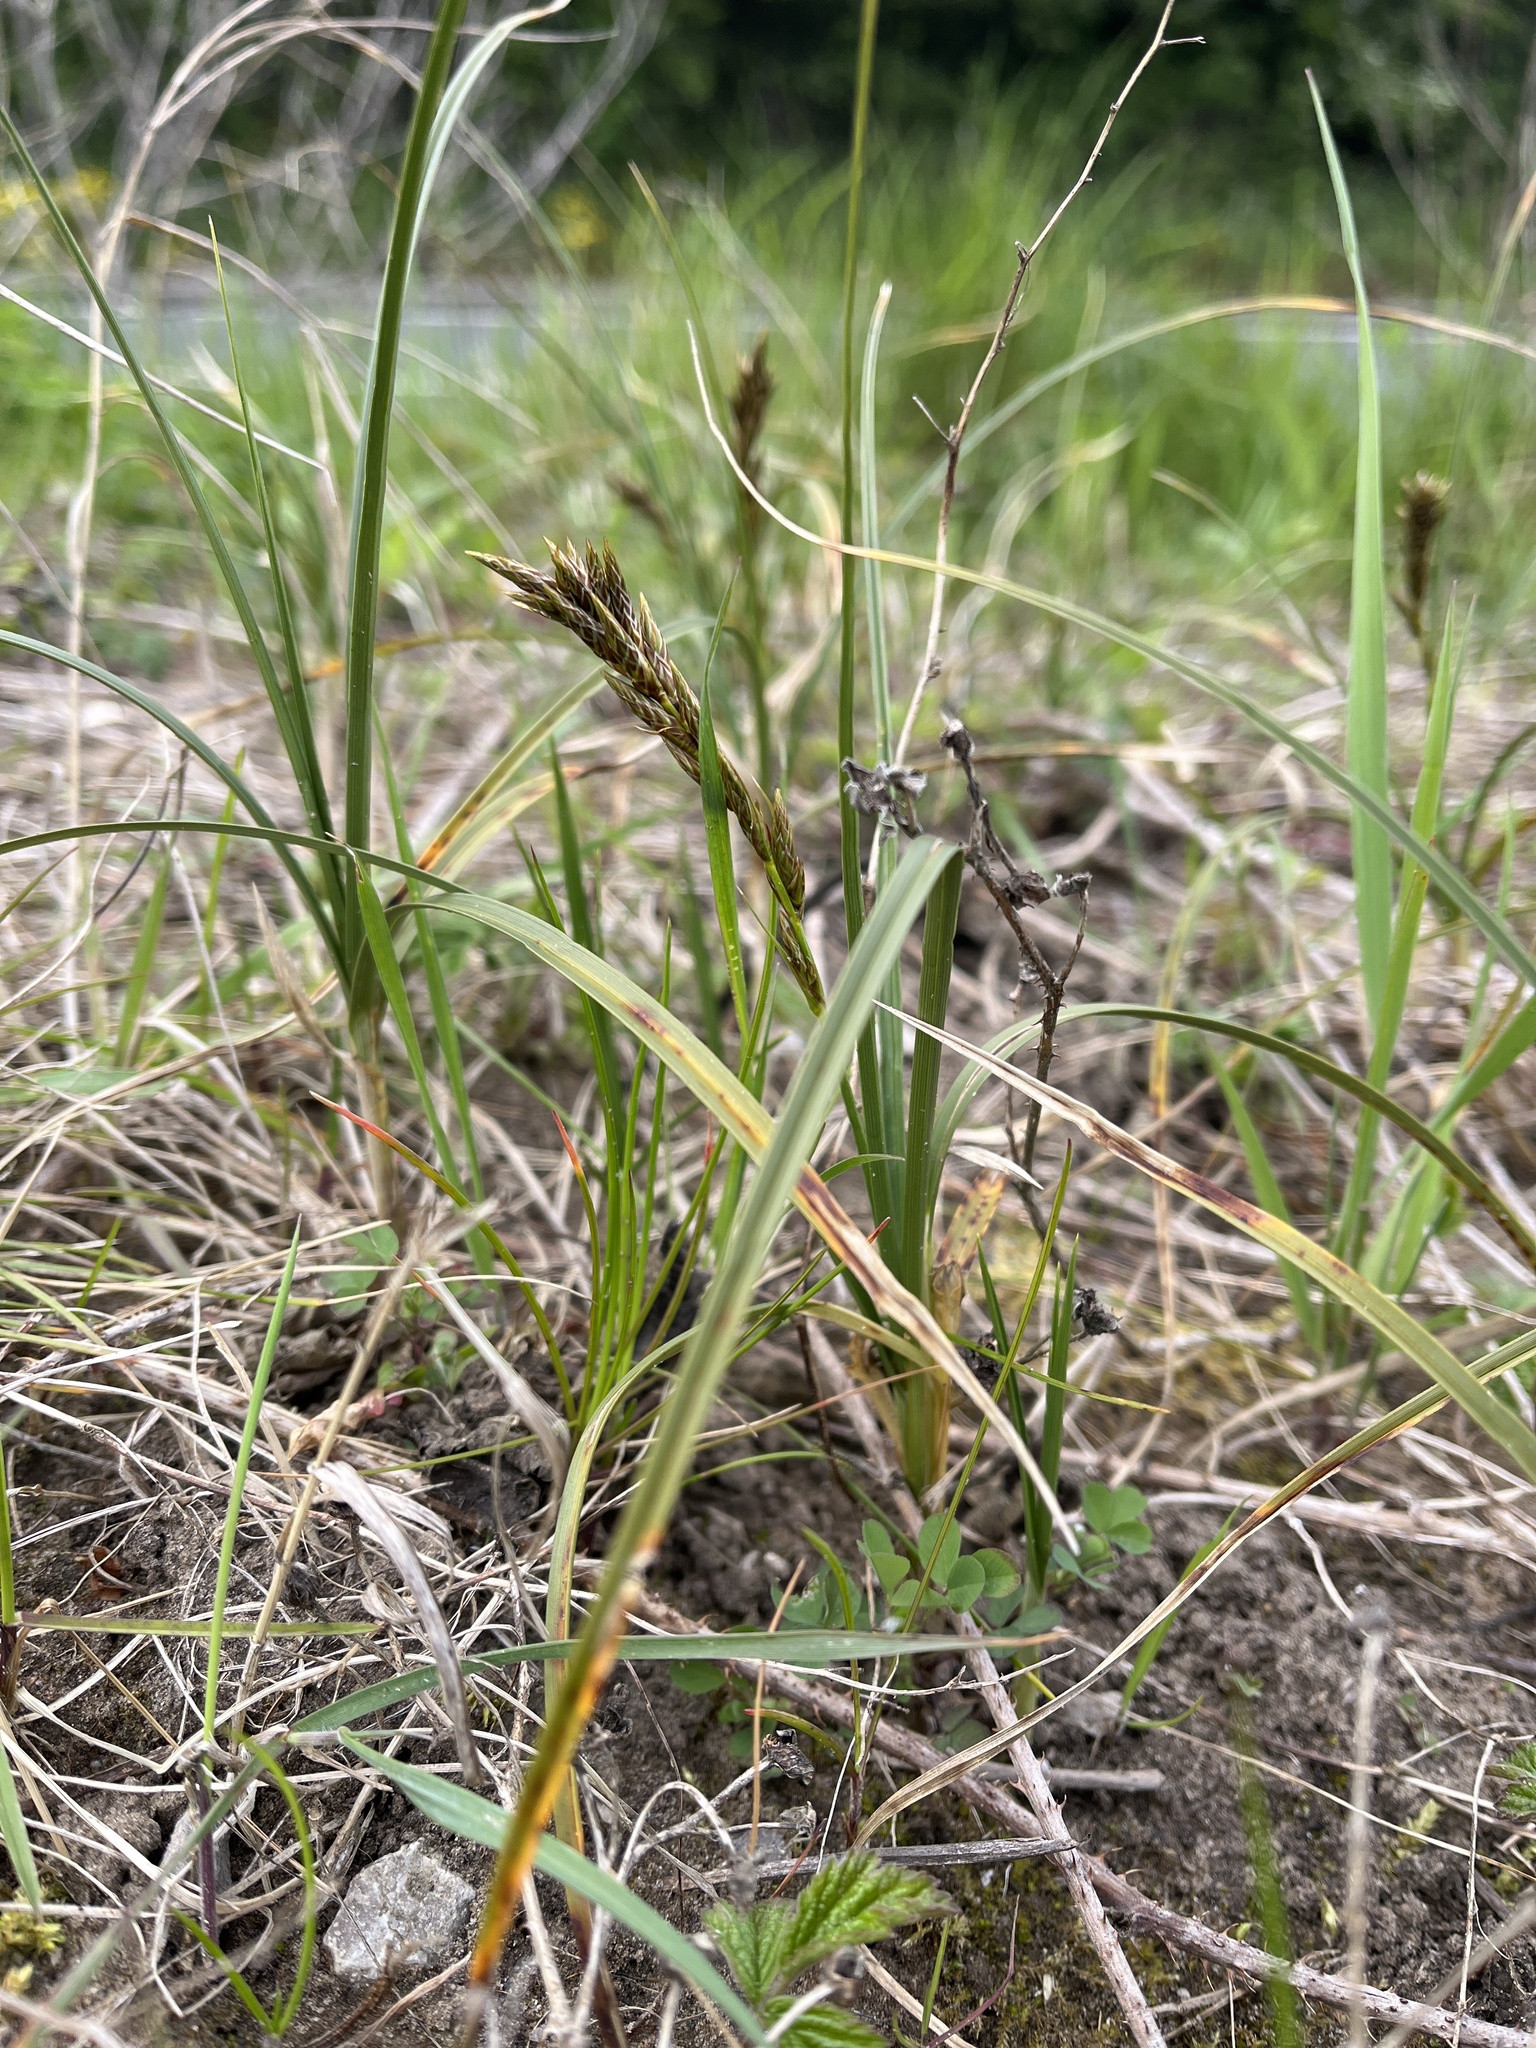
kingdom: Plantae
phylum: Tracheophyta
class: Liliopsida
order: Poales
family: Cyperaceae
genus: Carex
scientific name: Carex arenaria
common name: Sand sedge
